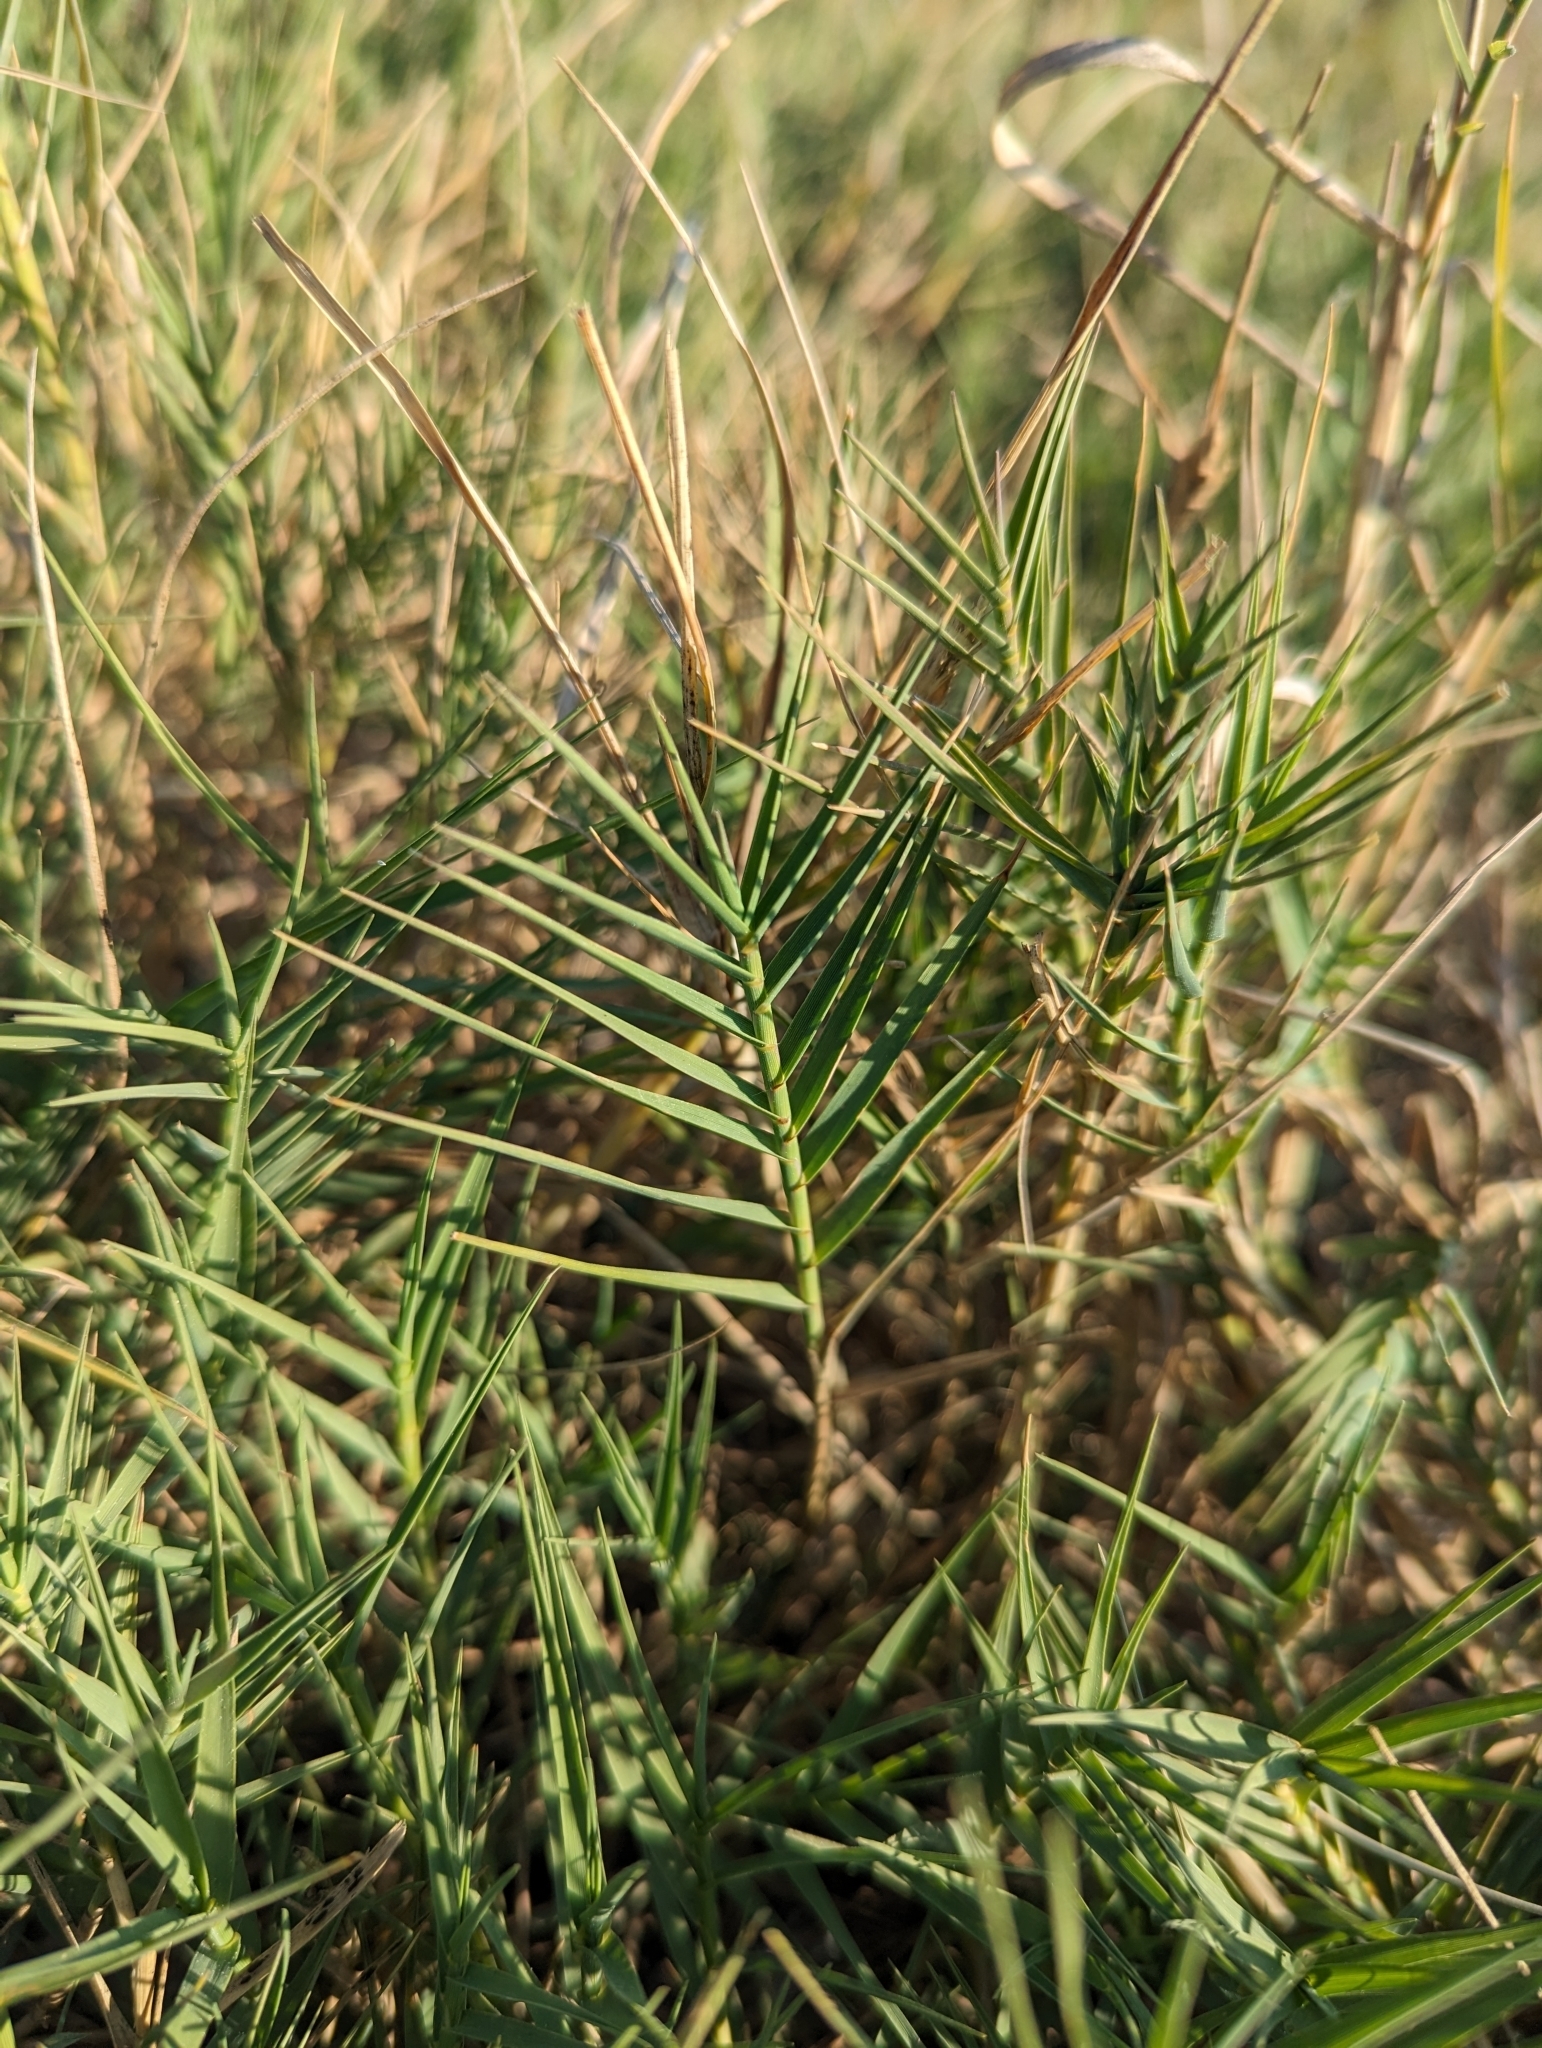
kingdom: Plantae
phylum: Tracheophyta
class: Liliopsida
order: Poales
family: Poaceae
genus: Distichlis
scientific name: Distichlis spicata
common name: Saltgrass
